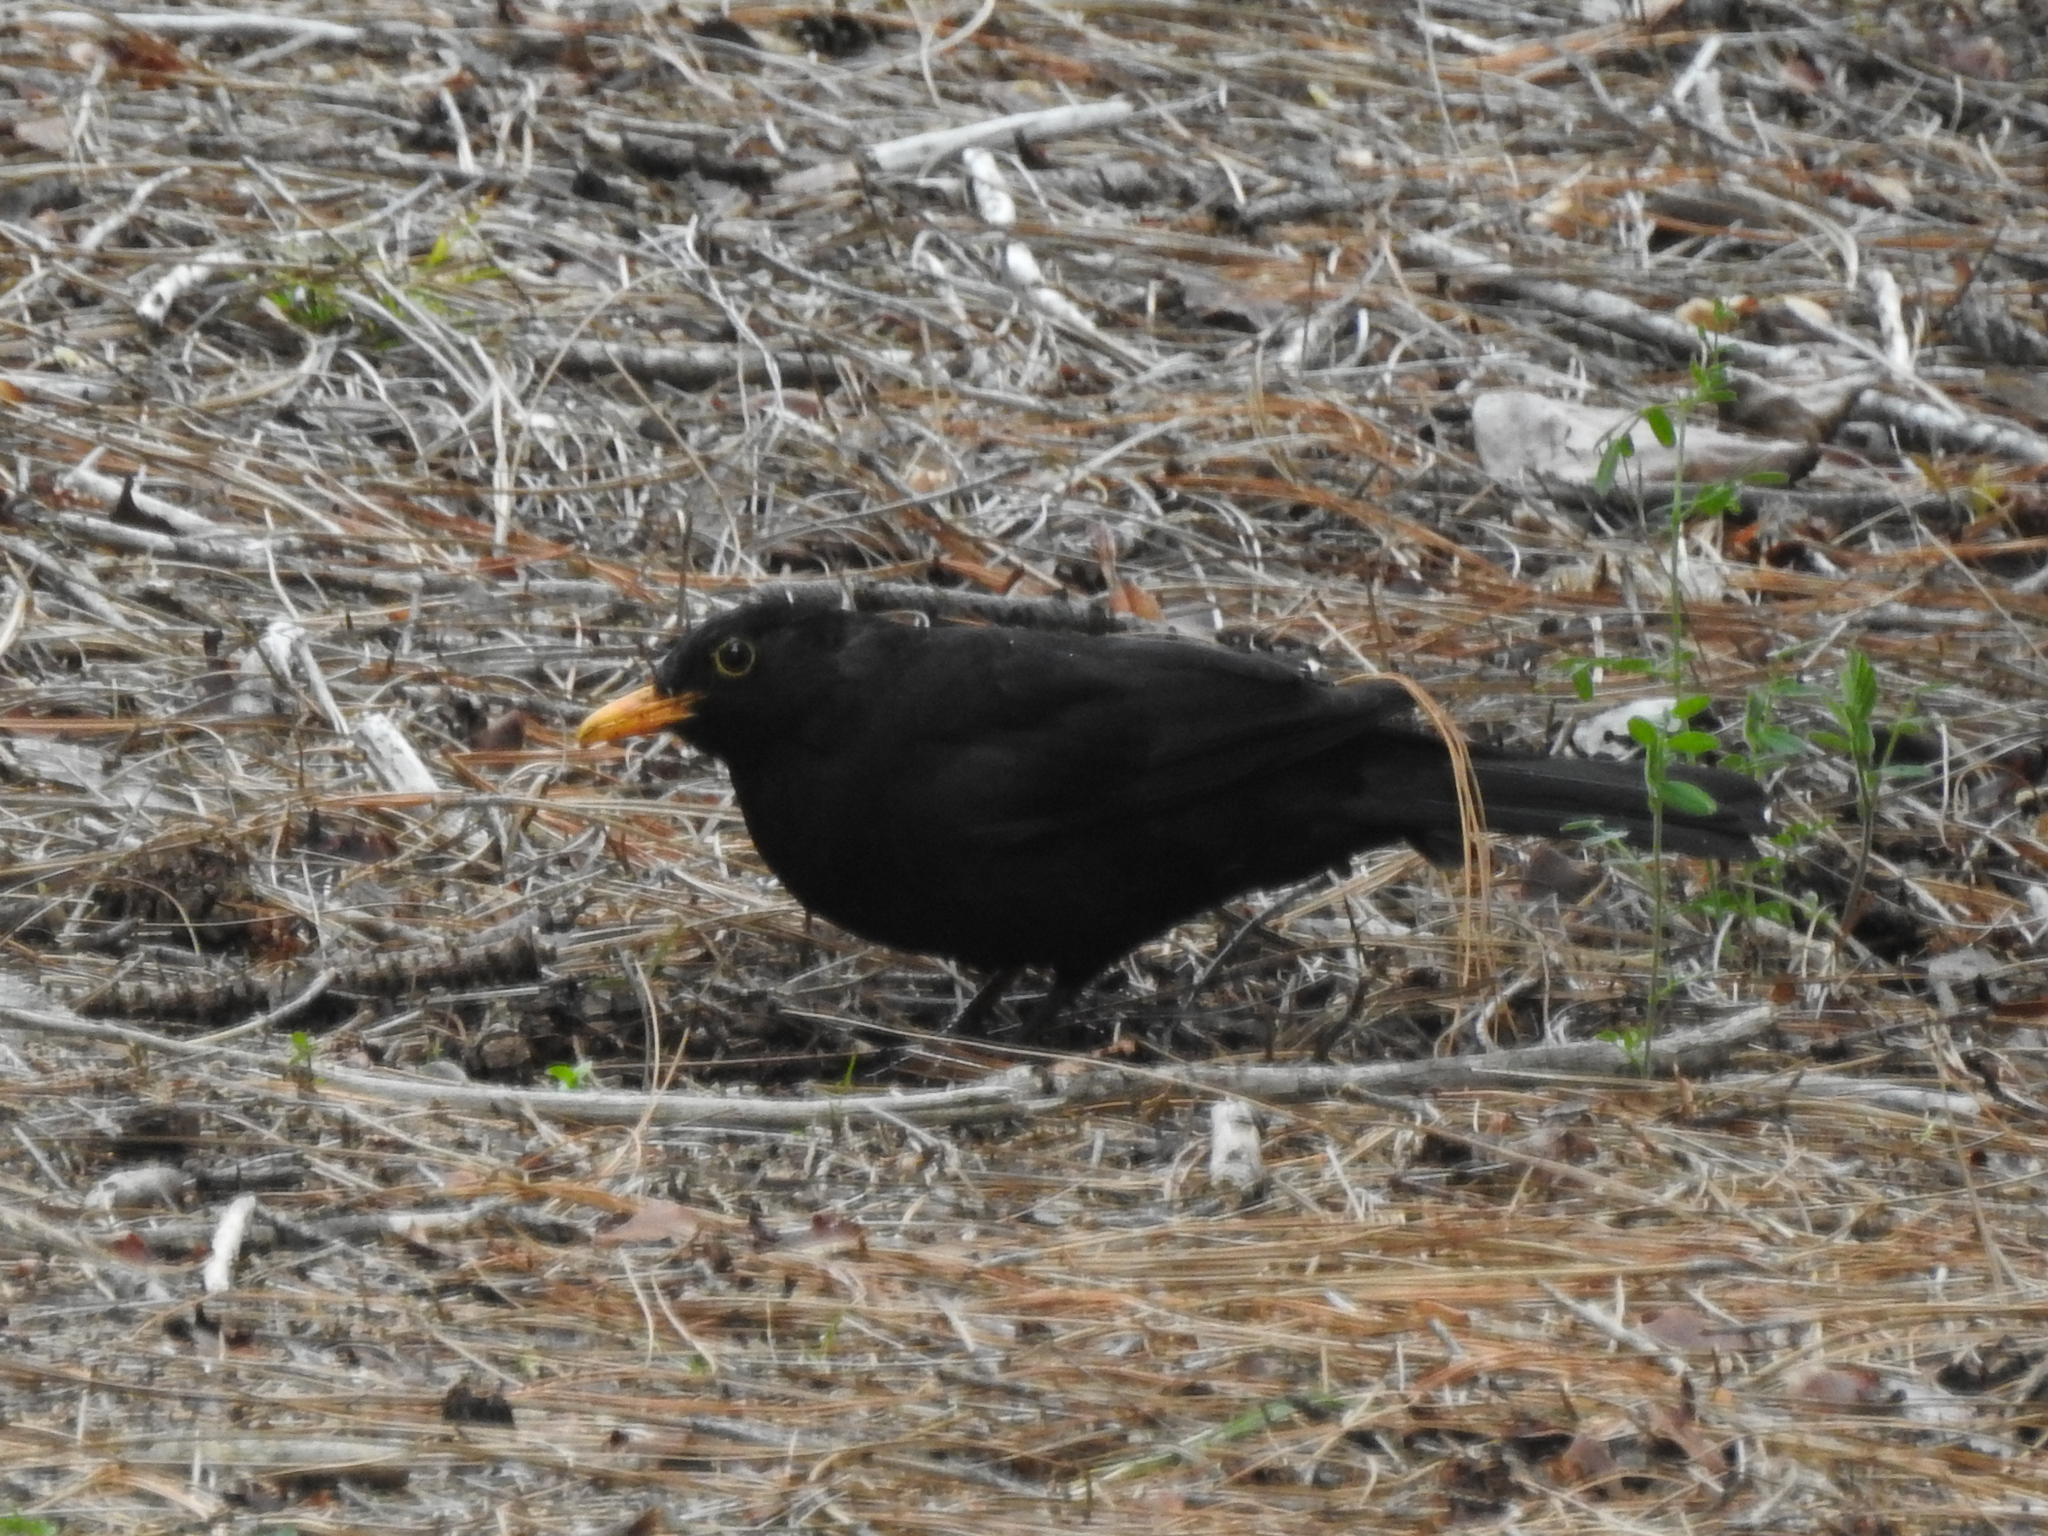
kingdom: Animalia
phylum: Chordata
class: Aves
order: Passeriformes
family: Turdidae
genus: Turdus
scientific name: Turdus merula
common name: Common blackbird
